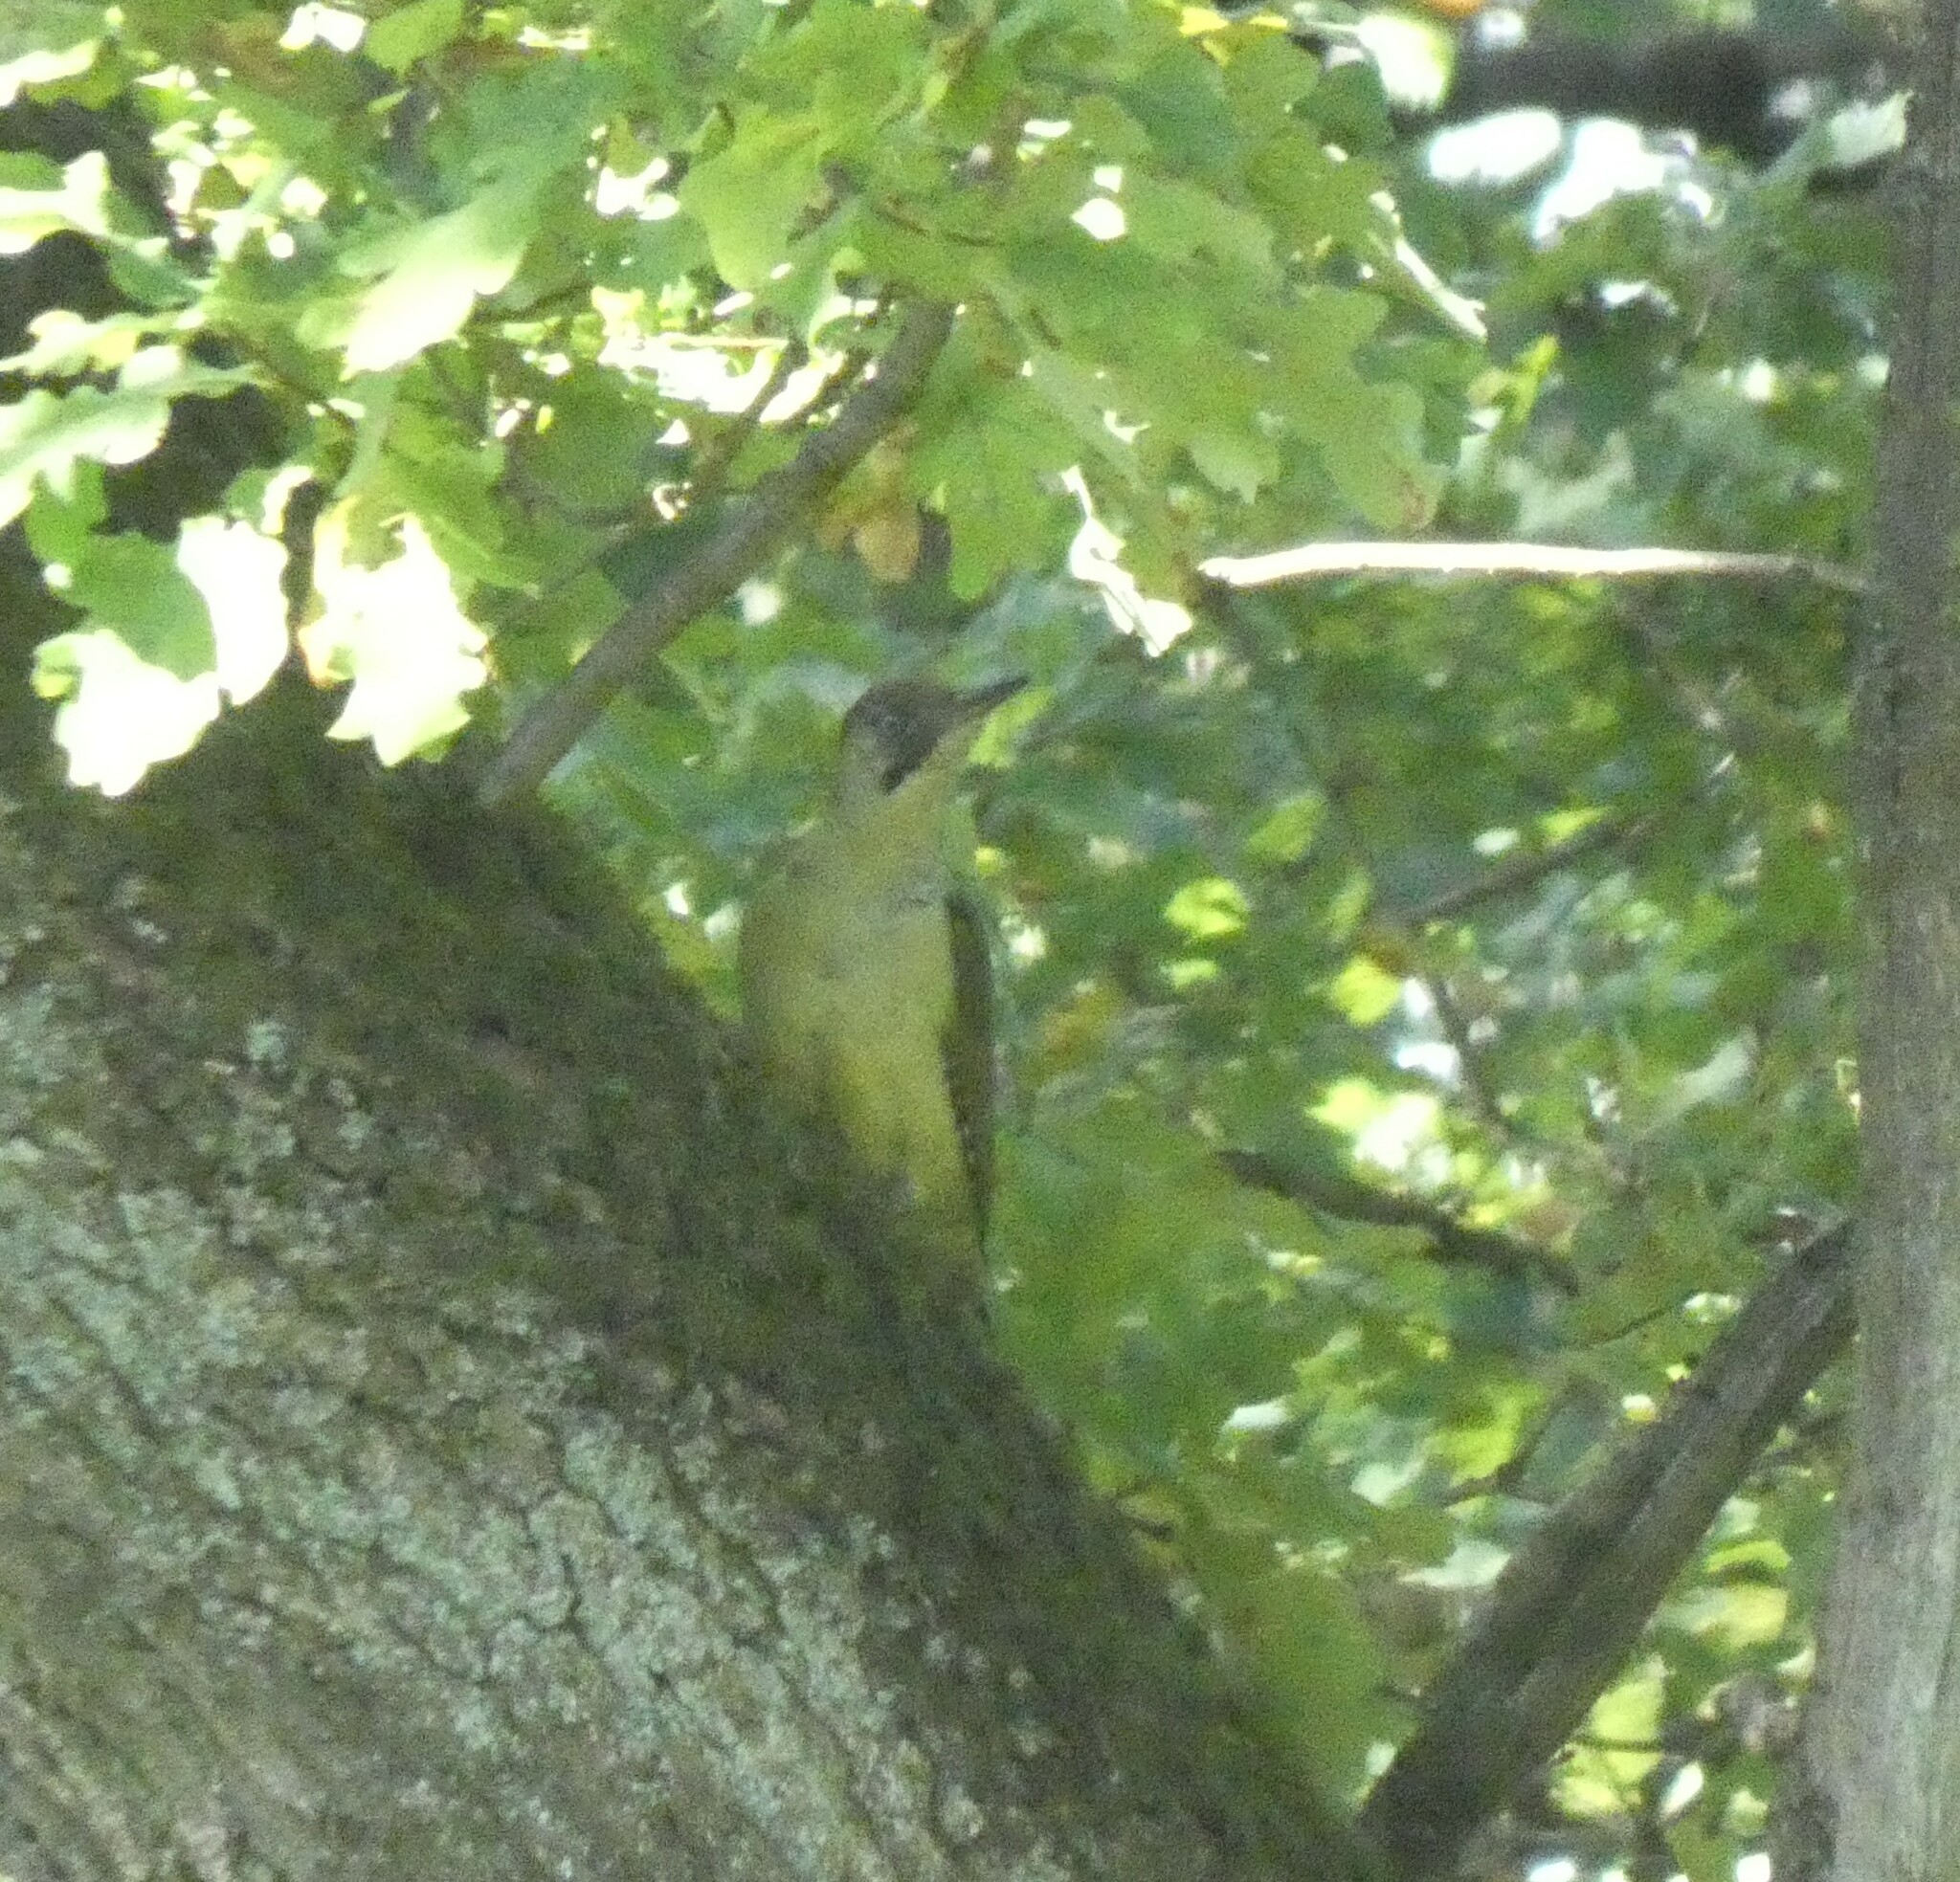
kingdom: Animalia
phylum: Chordata
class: Aves
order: Piciformes
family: Picidae
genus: Picus
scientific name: Picus viridis
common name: European green woodpecker
